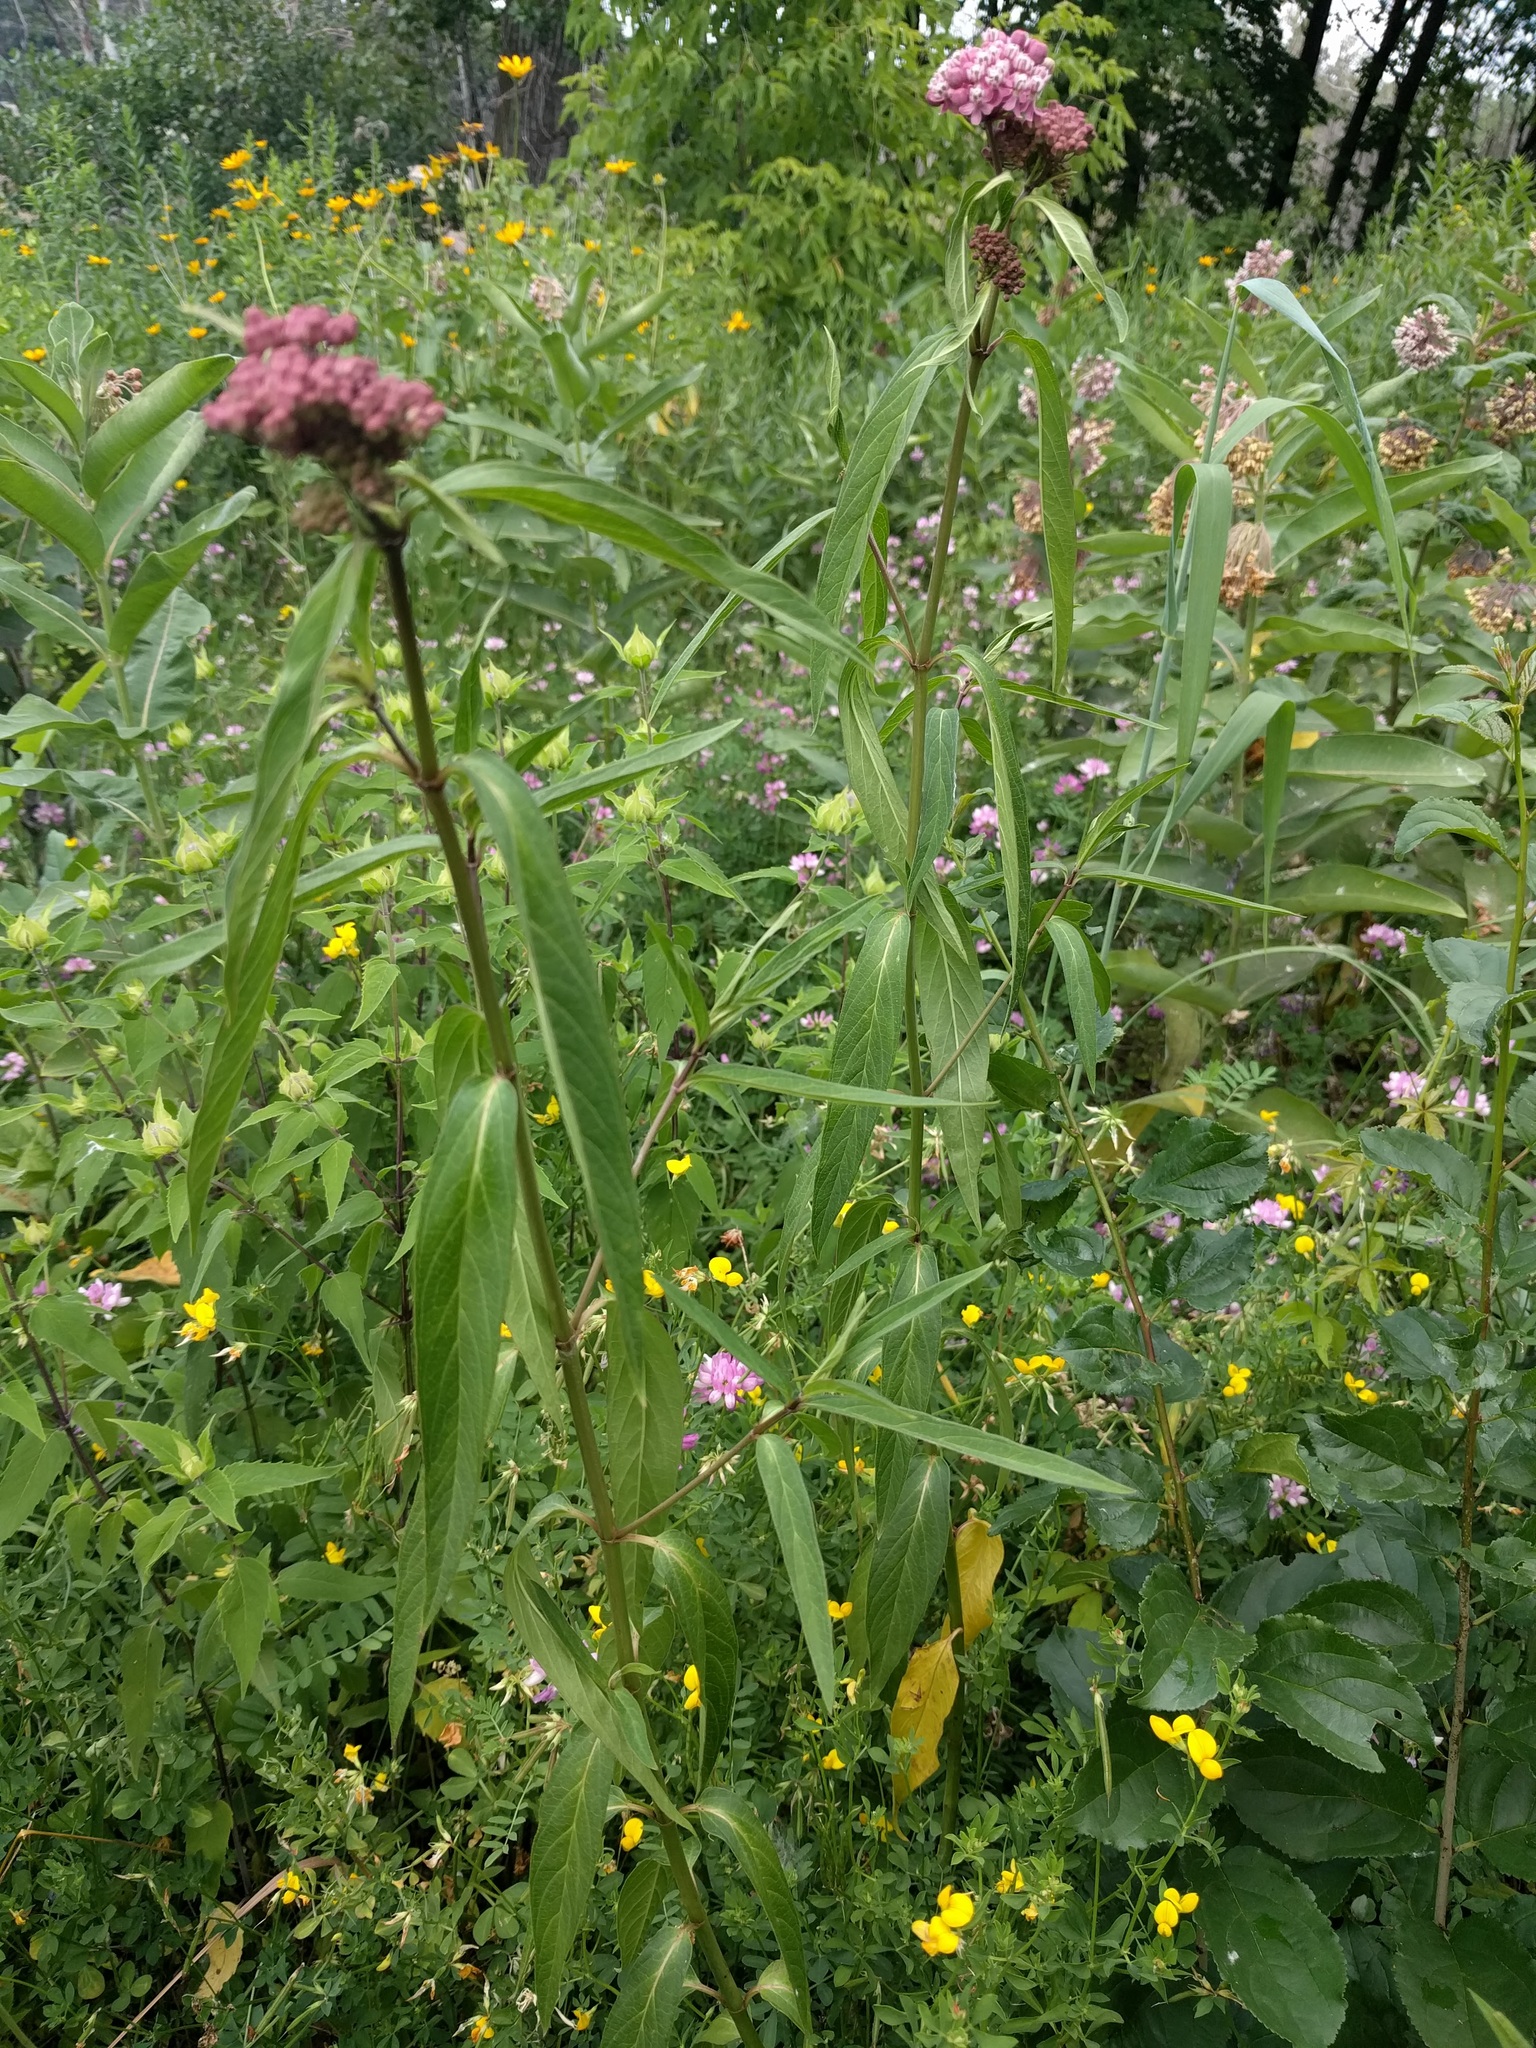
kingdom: Plantae
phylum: Tracheophyta
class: Magnoliopsida
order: Gentianales
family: Apocynaceae
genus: Asclepias
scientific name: Asclepias incarnata
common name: Swamp milkweed
